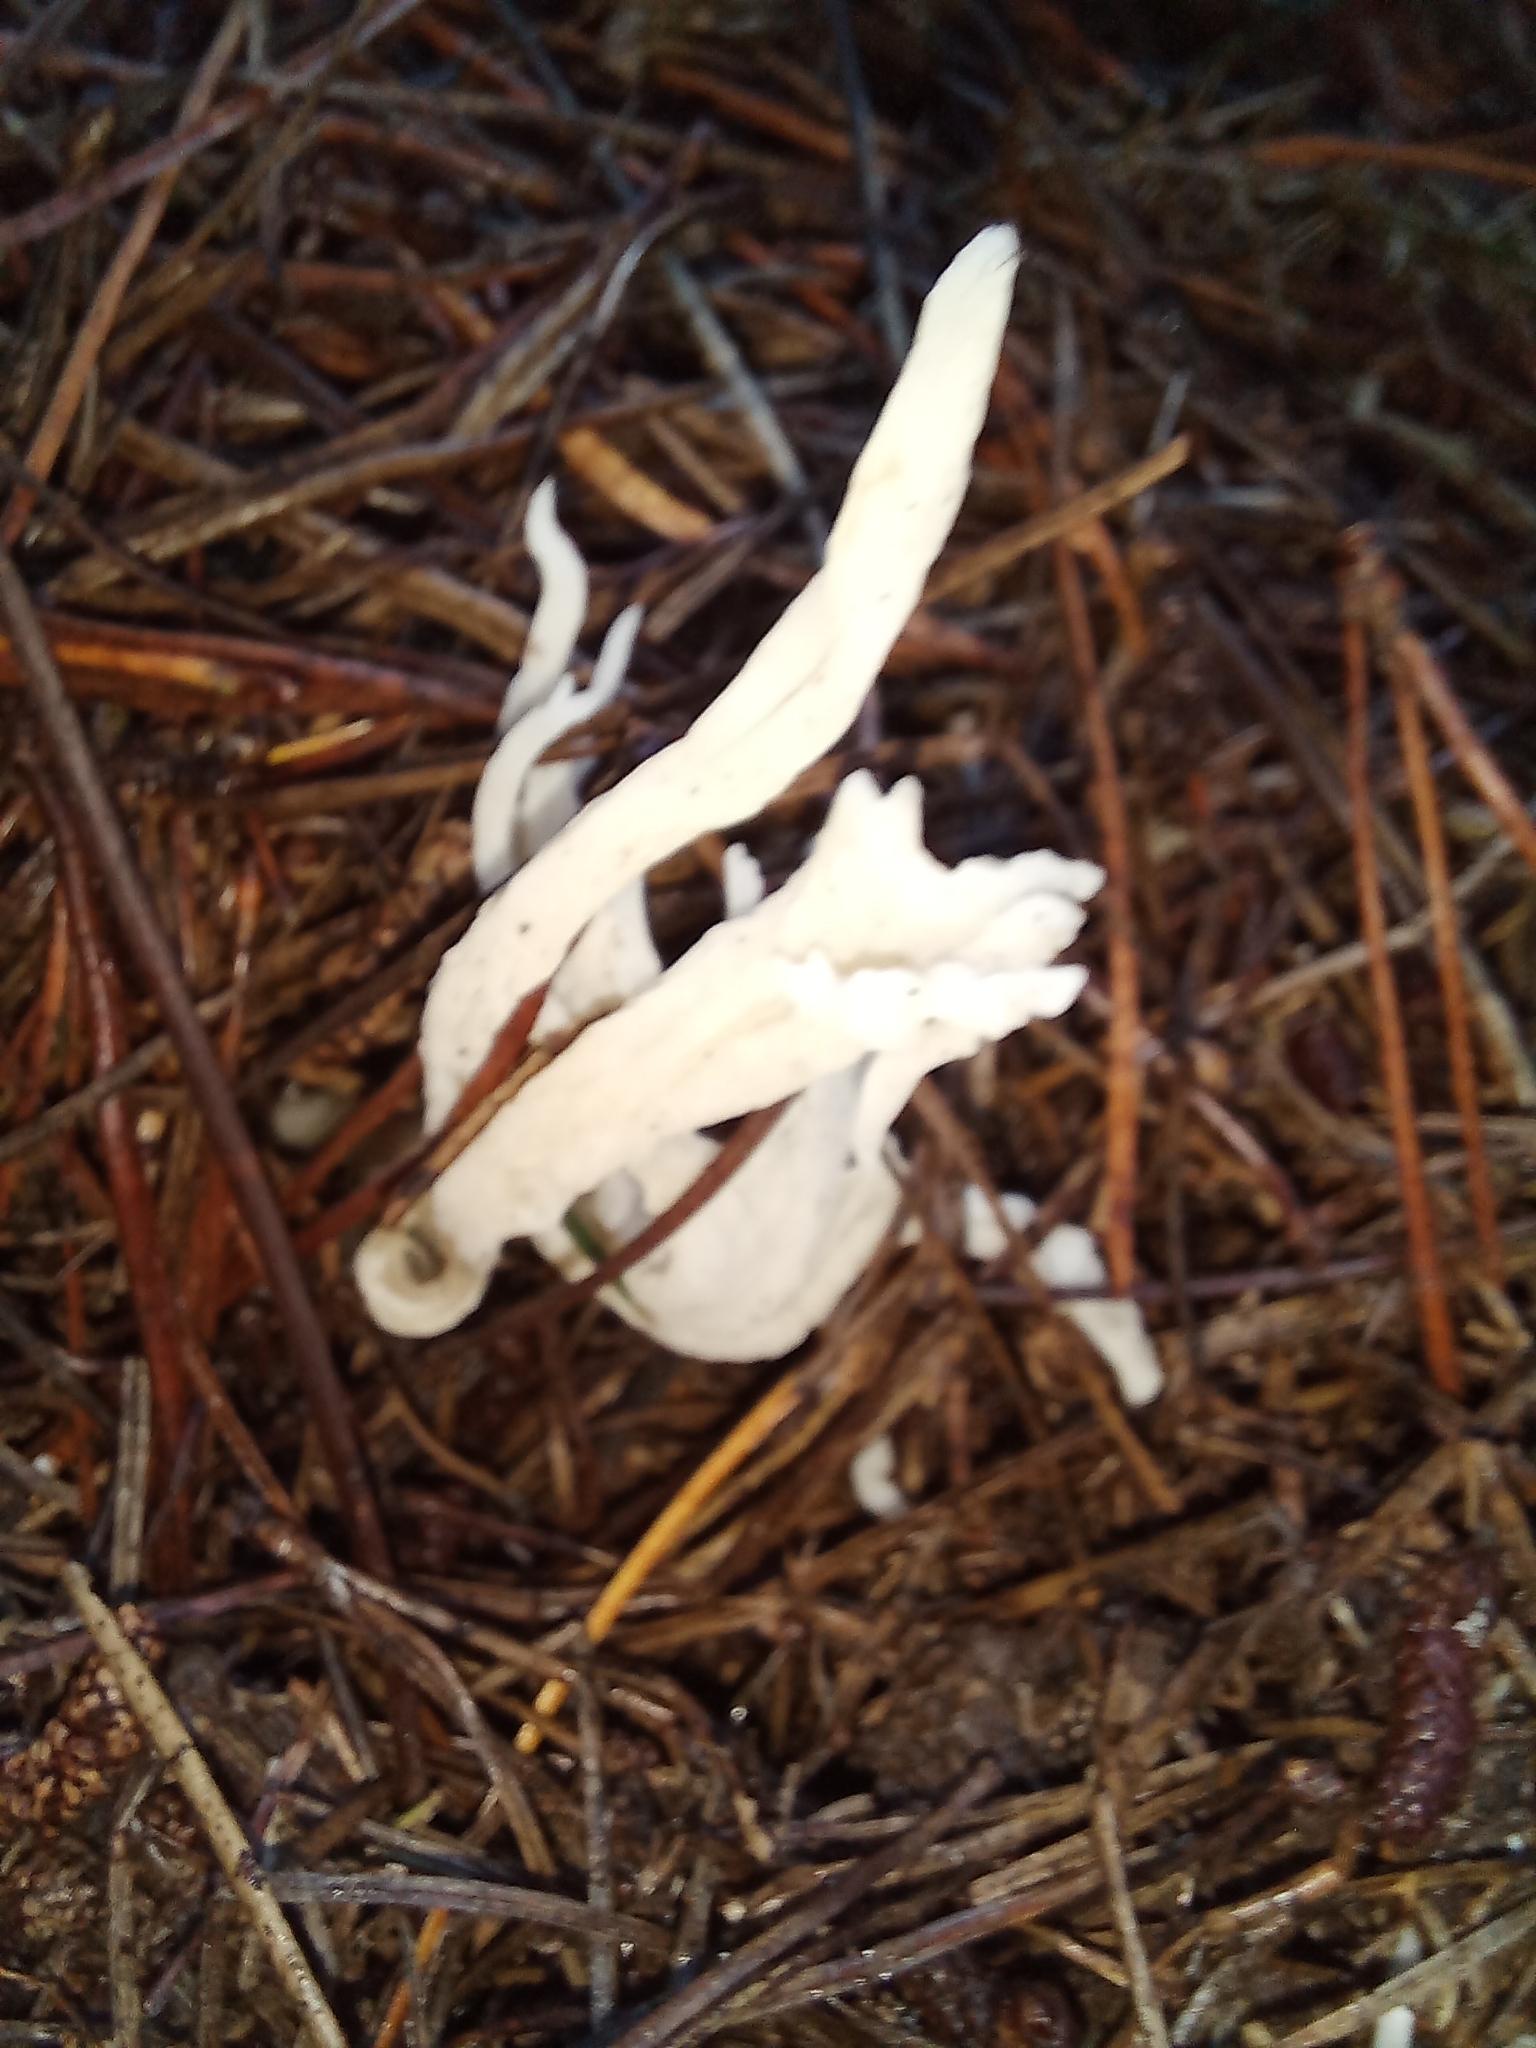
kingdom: Fungi
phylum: Basidiomycota
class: Agaricomycetes
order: Cantharellales
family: Hydnaceae
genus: Clavulina
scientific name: Clavulina rugosa
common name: Wrinkled club
